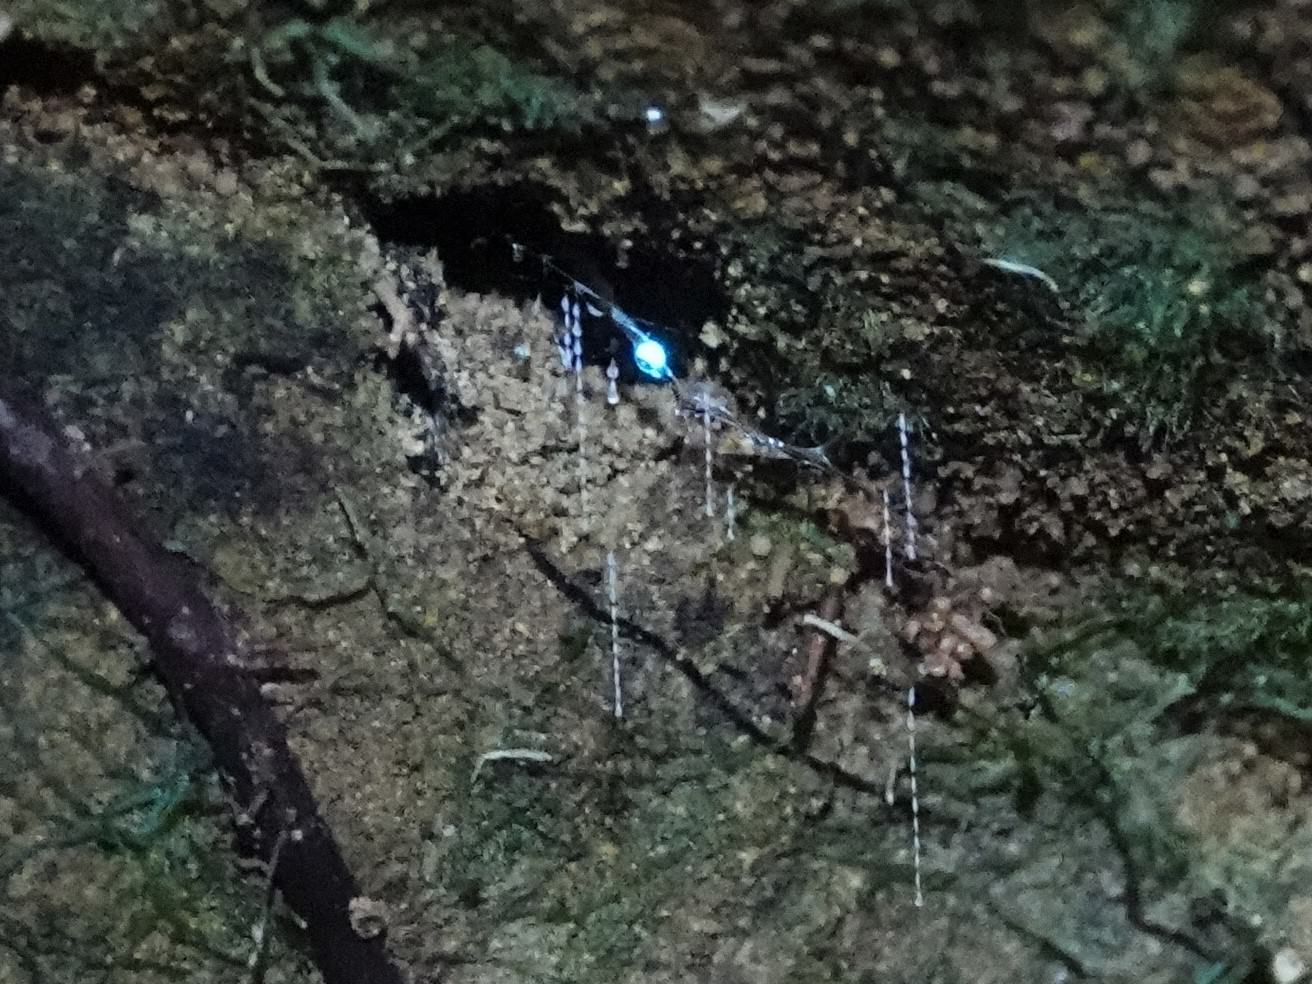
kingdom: Animalia
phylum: Arthropoda
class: Insecta
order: Diptera
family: Keroplatidae
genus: Arachnocampa
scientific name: Arachnocampa luminosa
